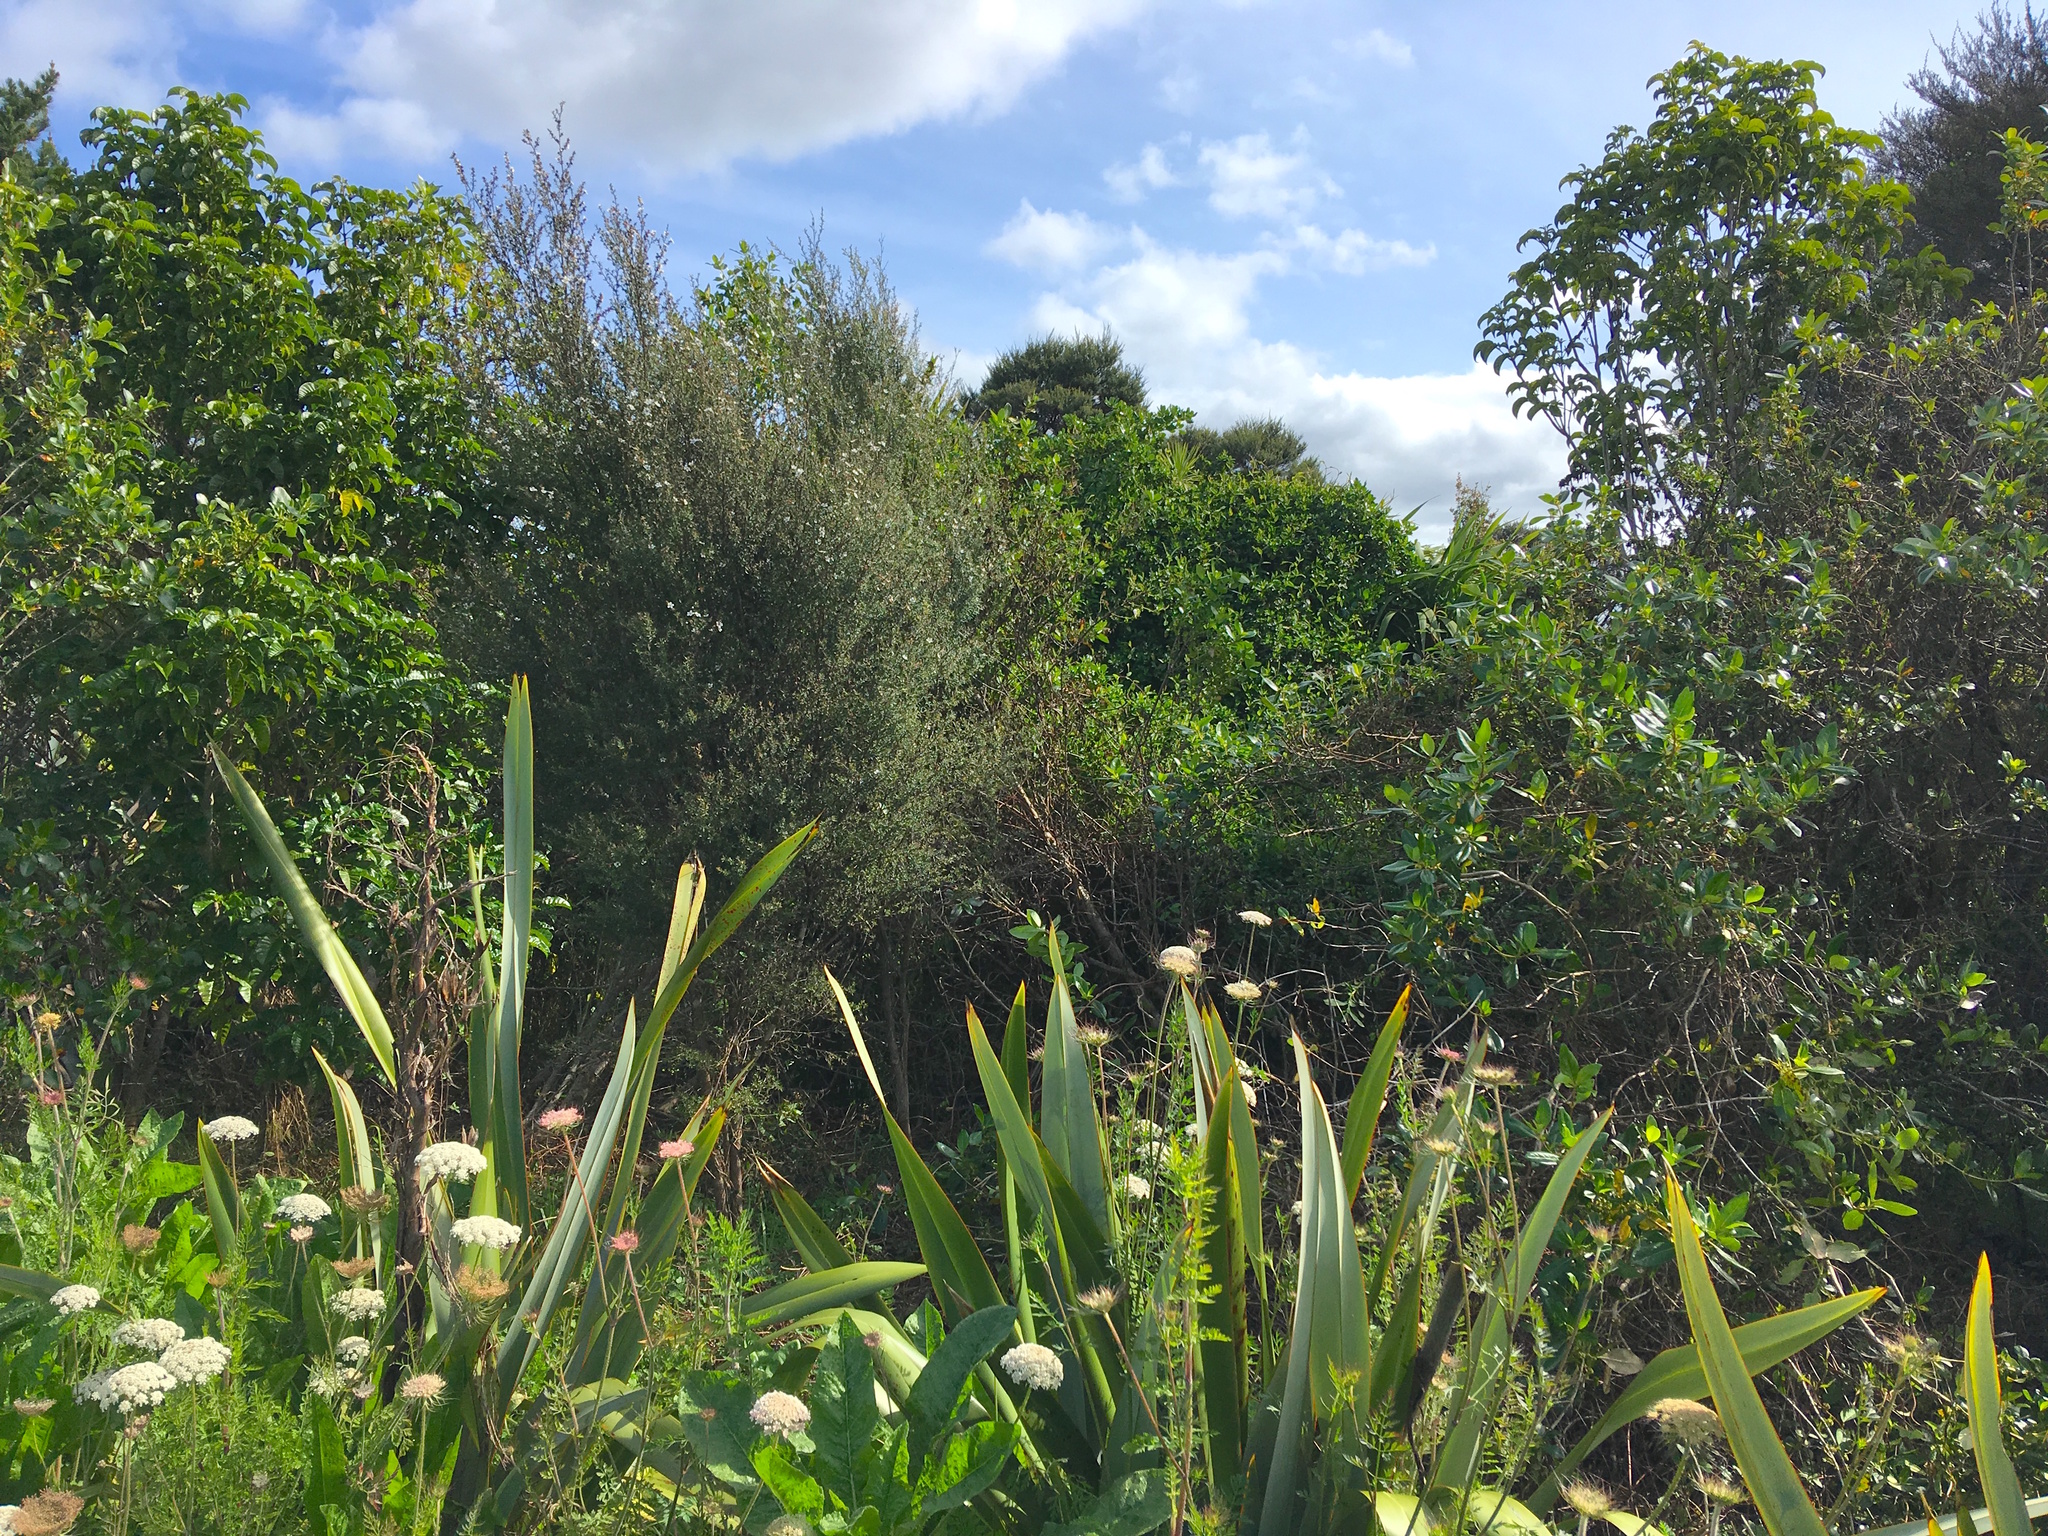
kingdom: Plantae
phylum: Tracheophyta
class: Magnoliopsida
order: Myrtales
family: Myrtaceae
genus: Leptospermum
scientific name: Leptospermum scoparium
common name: Broom tea-tree
